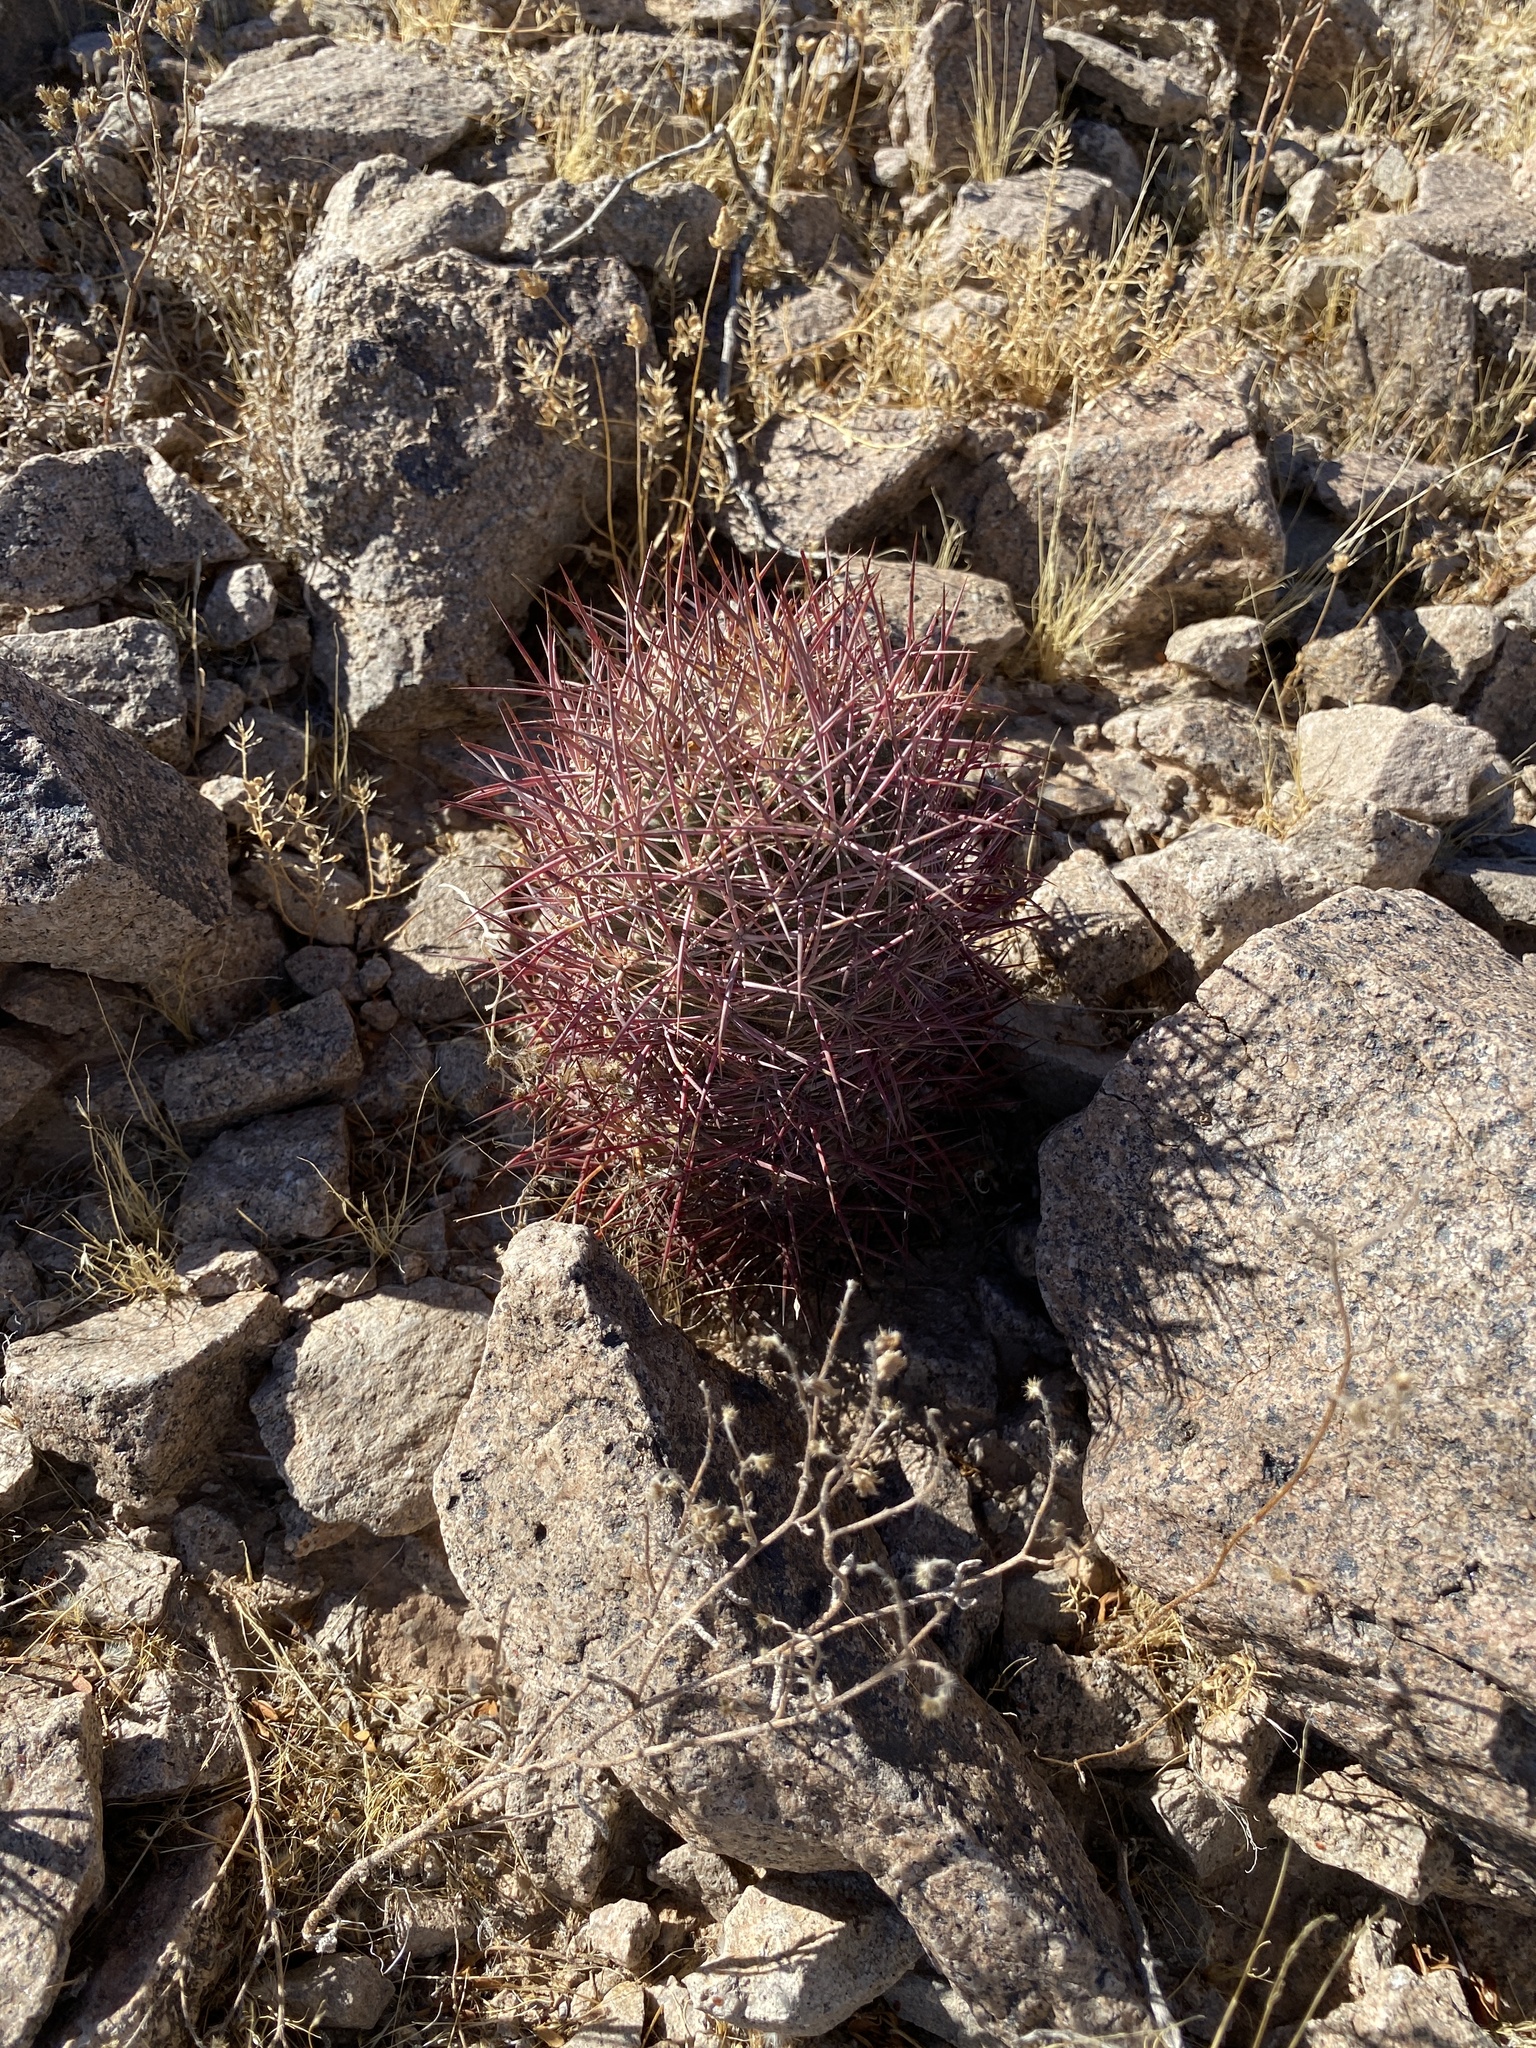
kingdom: Plantae
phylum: Tracheophyta
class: Magnoliopsida
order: Caryophyllales
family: Cactaceae
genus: Sclerocactus
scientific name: Sclerocactus johnsonii
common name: Eight-spine fishhook cactus
